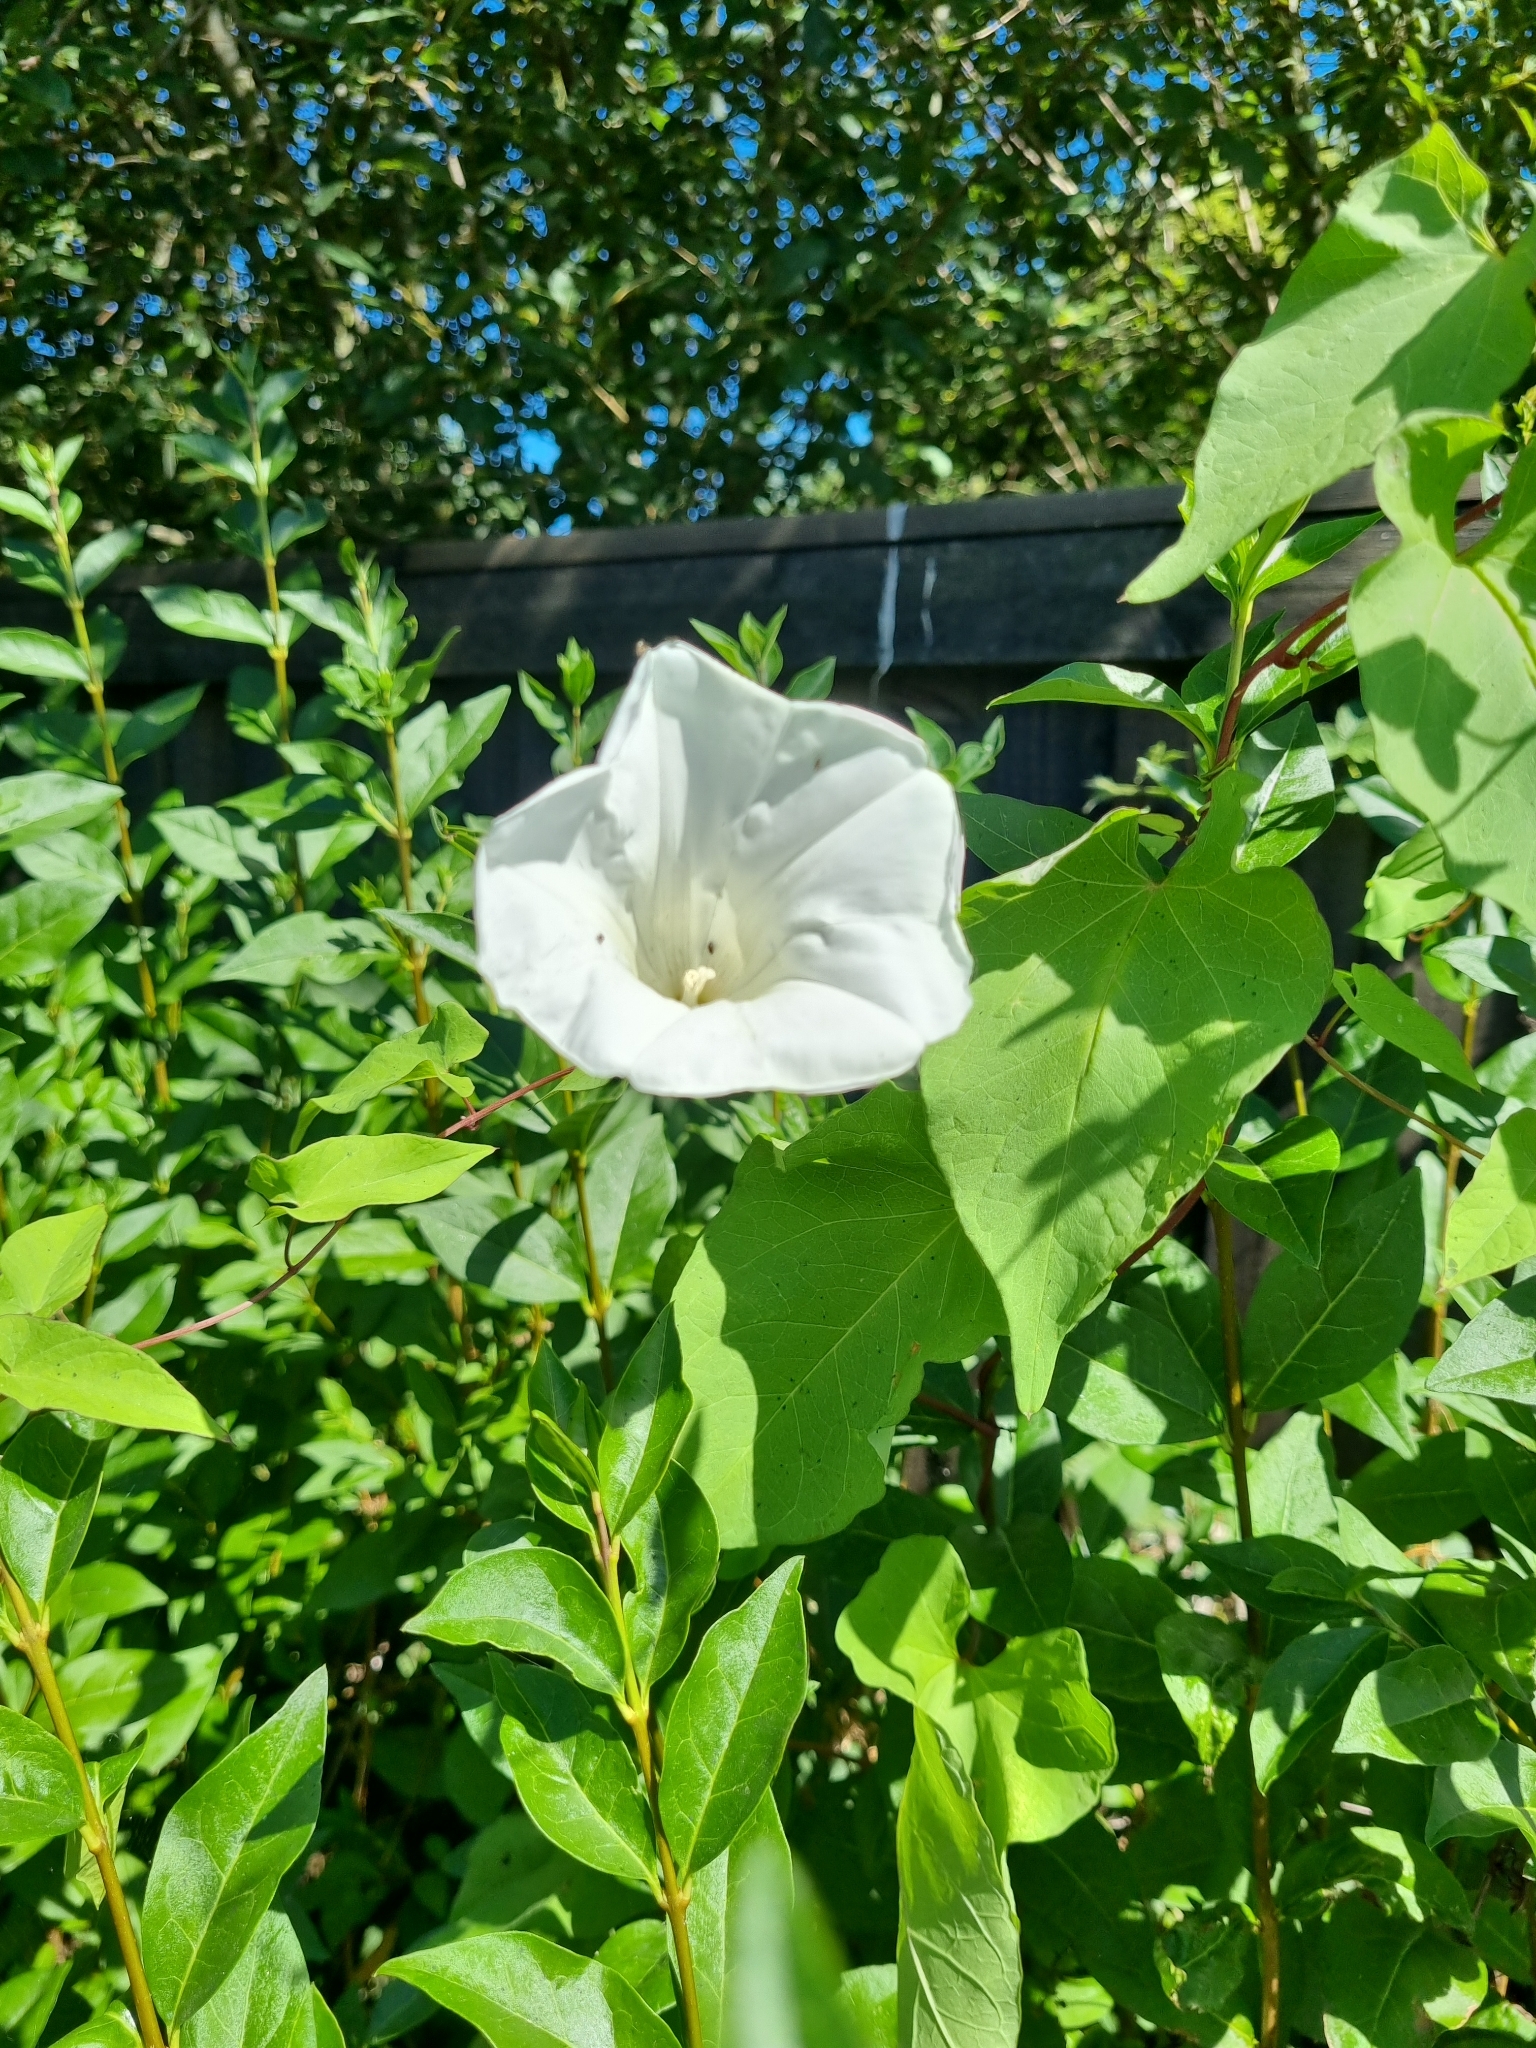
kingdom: Plantae
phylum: Tracheophyta
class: Magnoliopsida
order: Solanales
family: Convolvulaceae
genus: Calystegia
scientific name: Calystegia sepium
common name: Hedge bindweed
